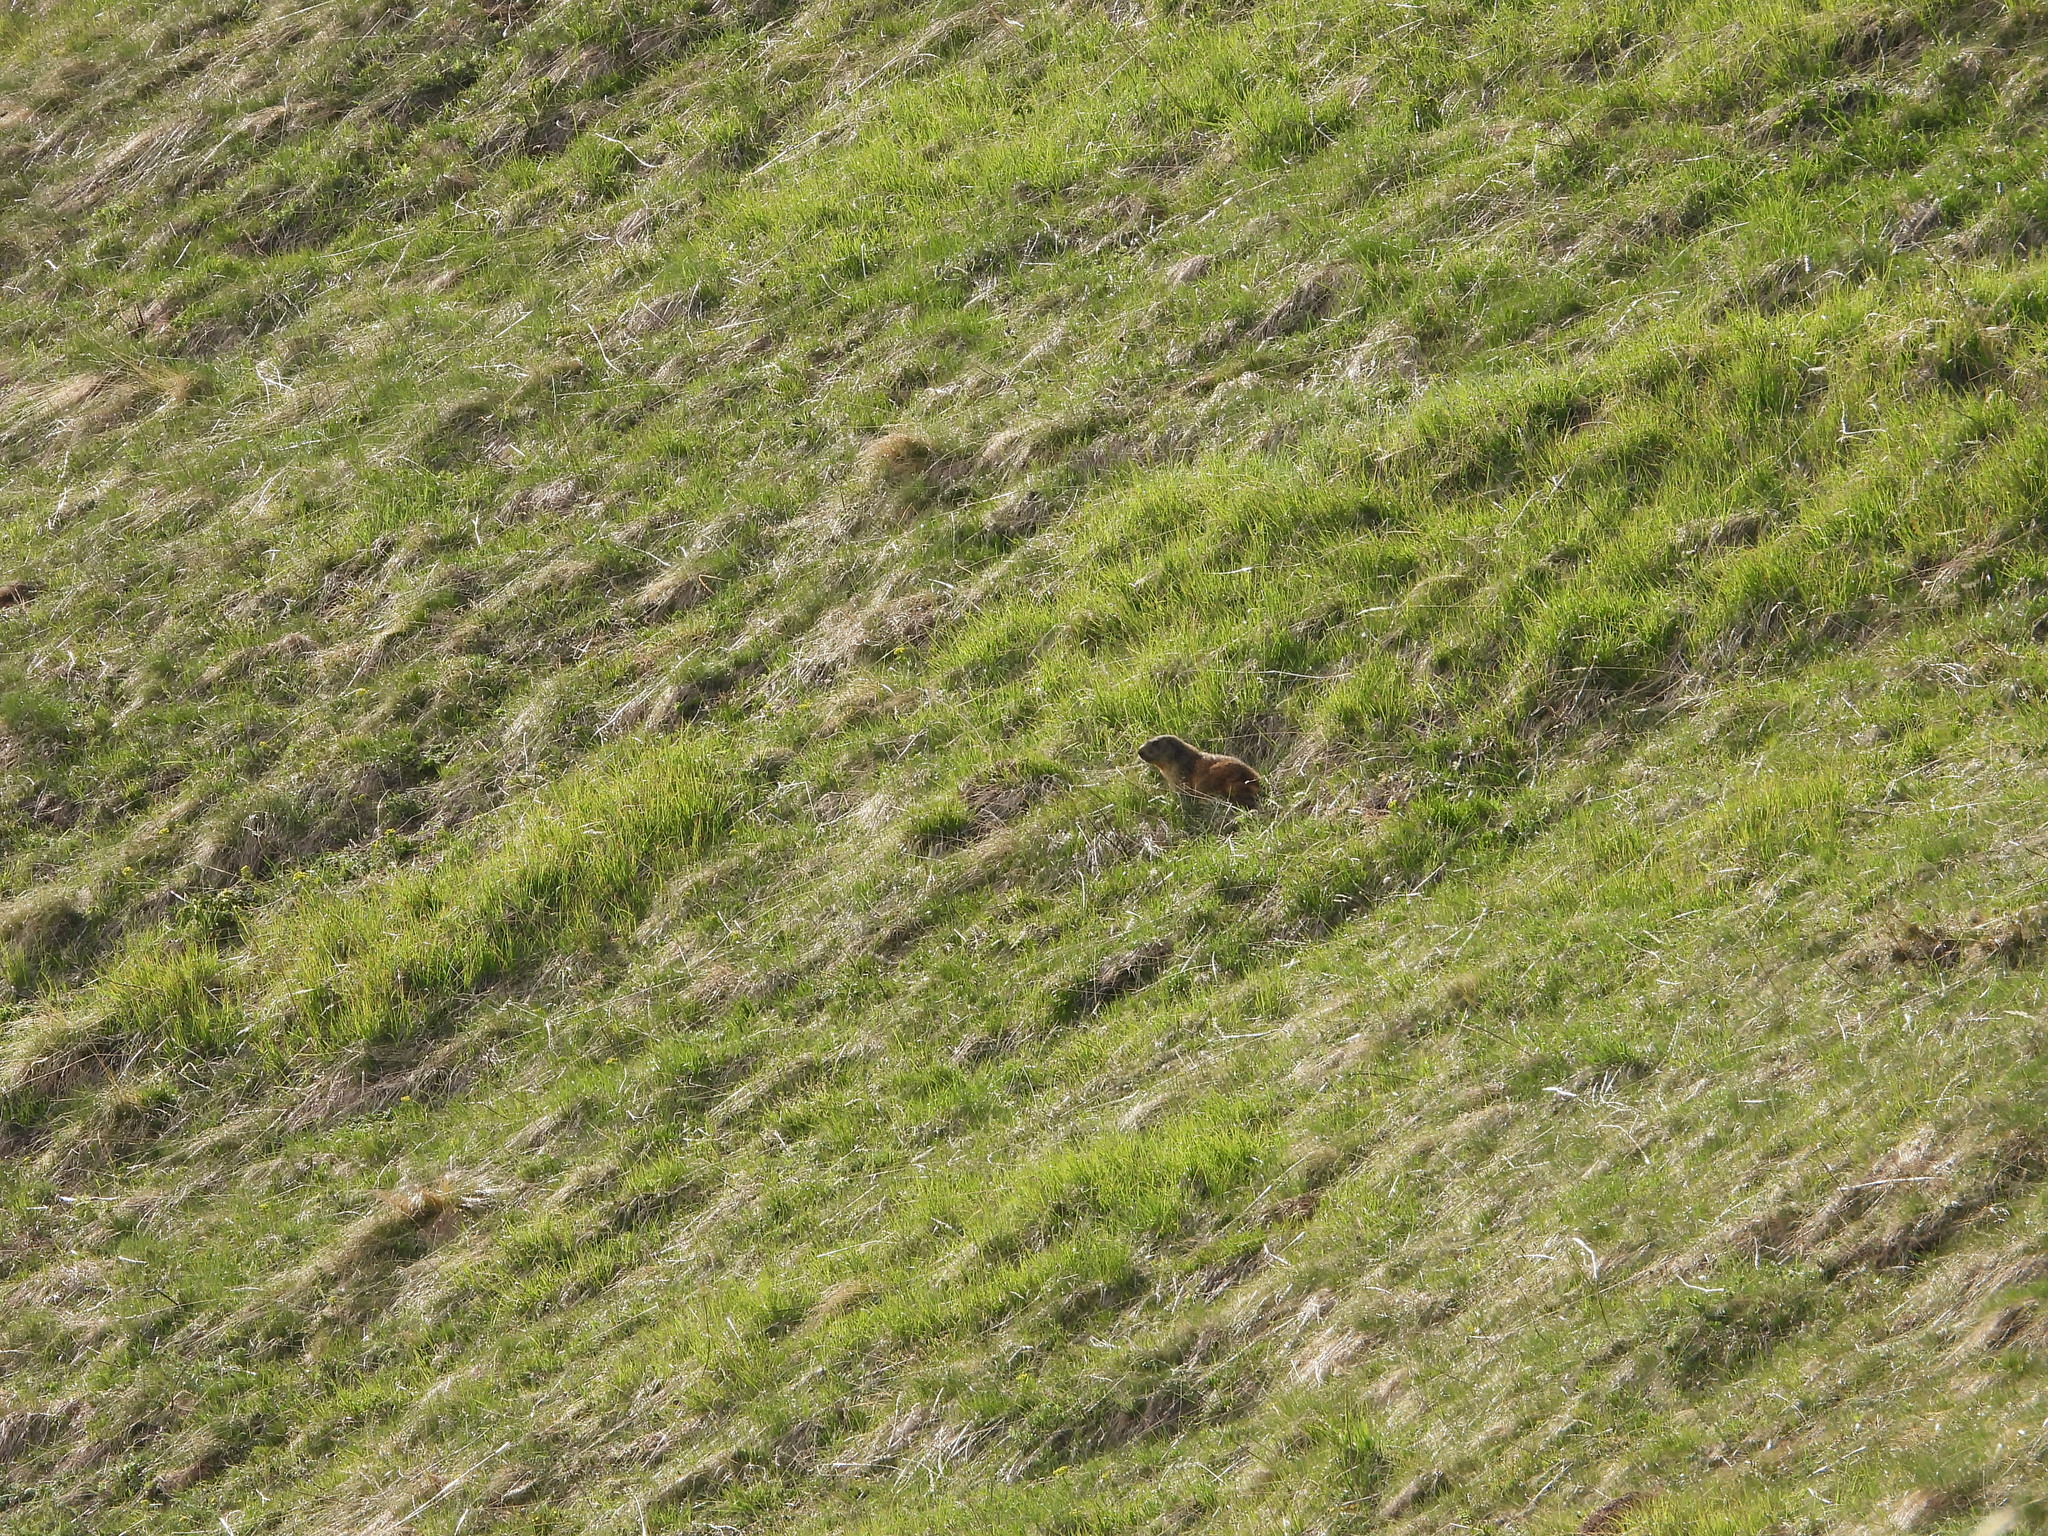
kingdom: Animalia
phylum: Chordata
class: Mammalia
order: Rodentia
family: Sciuridae
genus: Marmota
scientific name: Marmota marmota
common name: Alpine marmot
